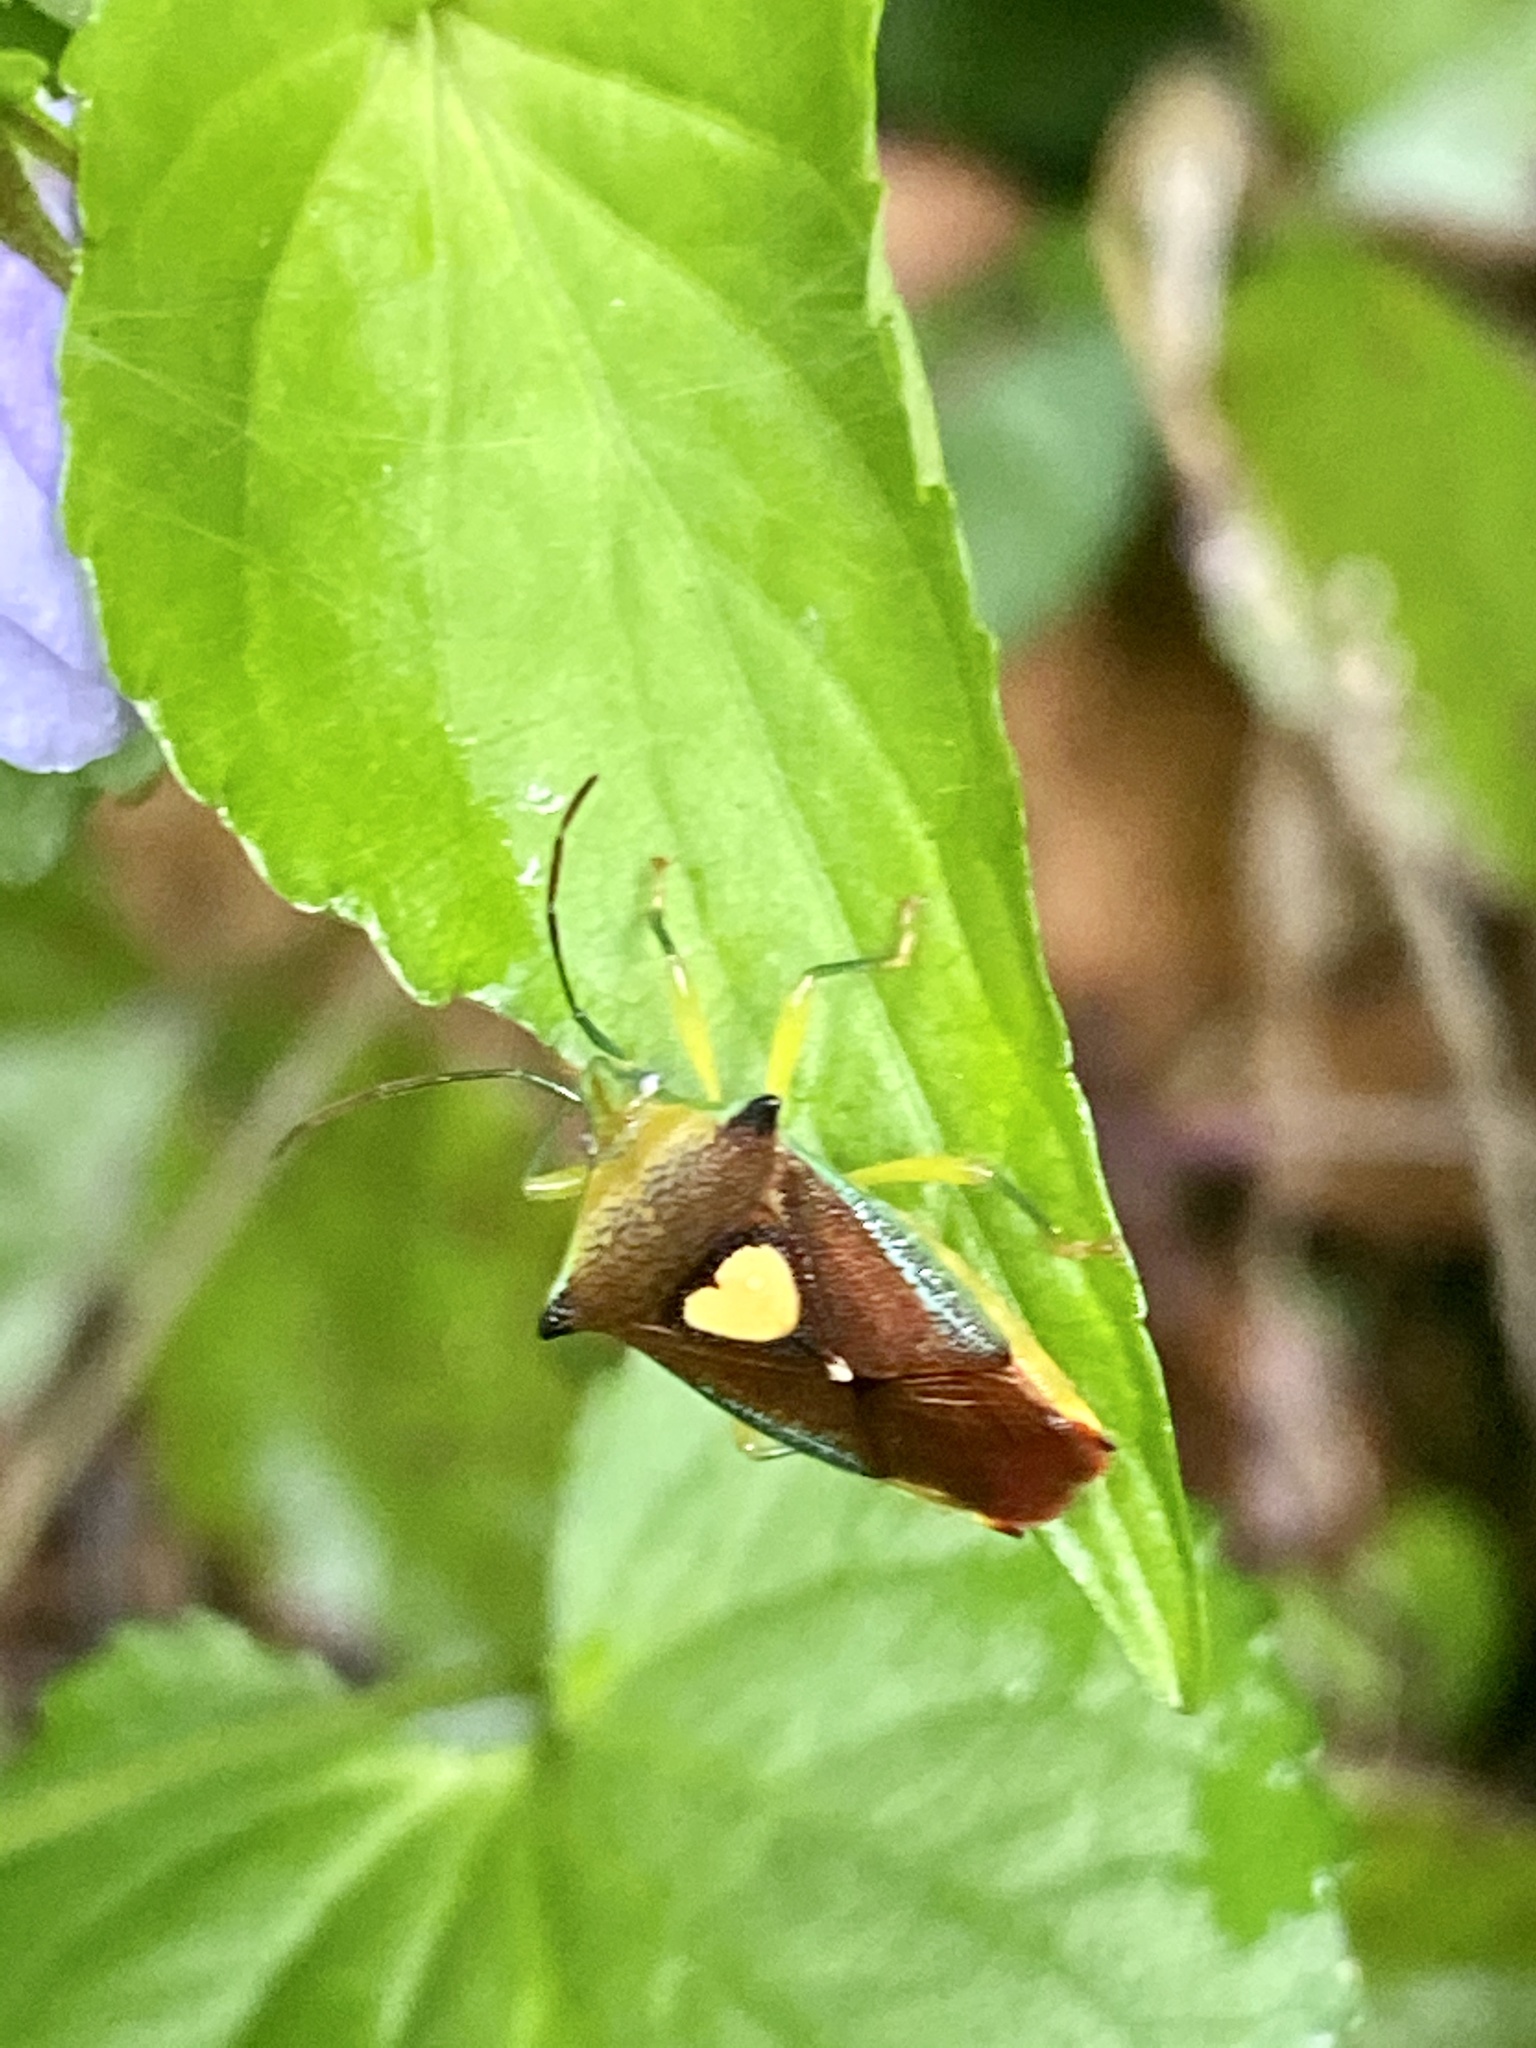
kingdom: Animalia
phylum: Arthropoda
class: Insecta
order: Hemiptera
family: Acanthosomatidae
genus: Sastragala
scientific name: Sastragala esakii
